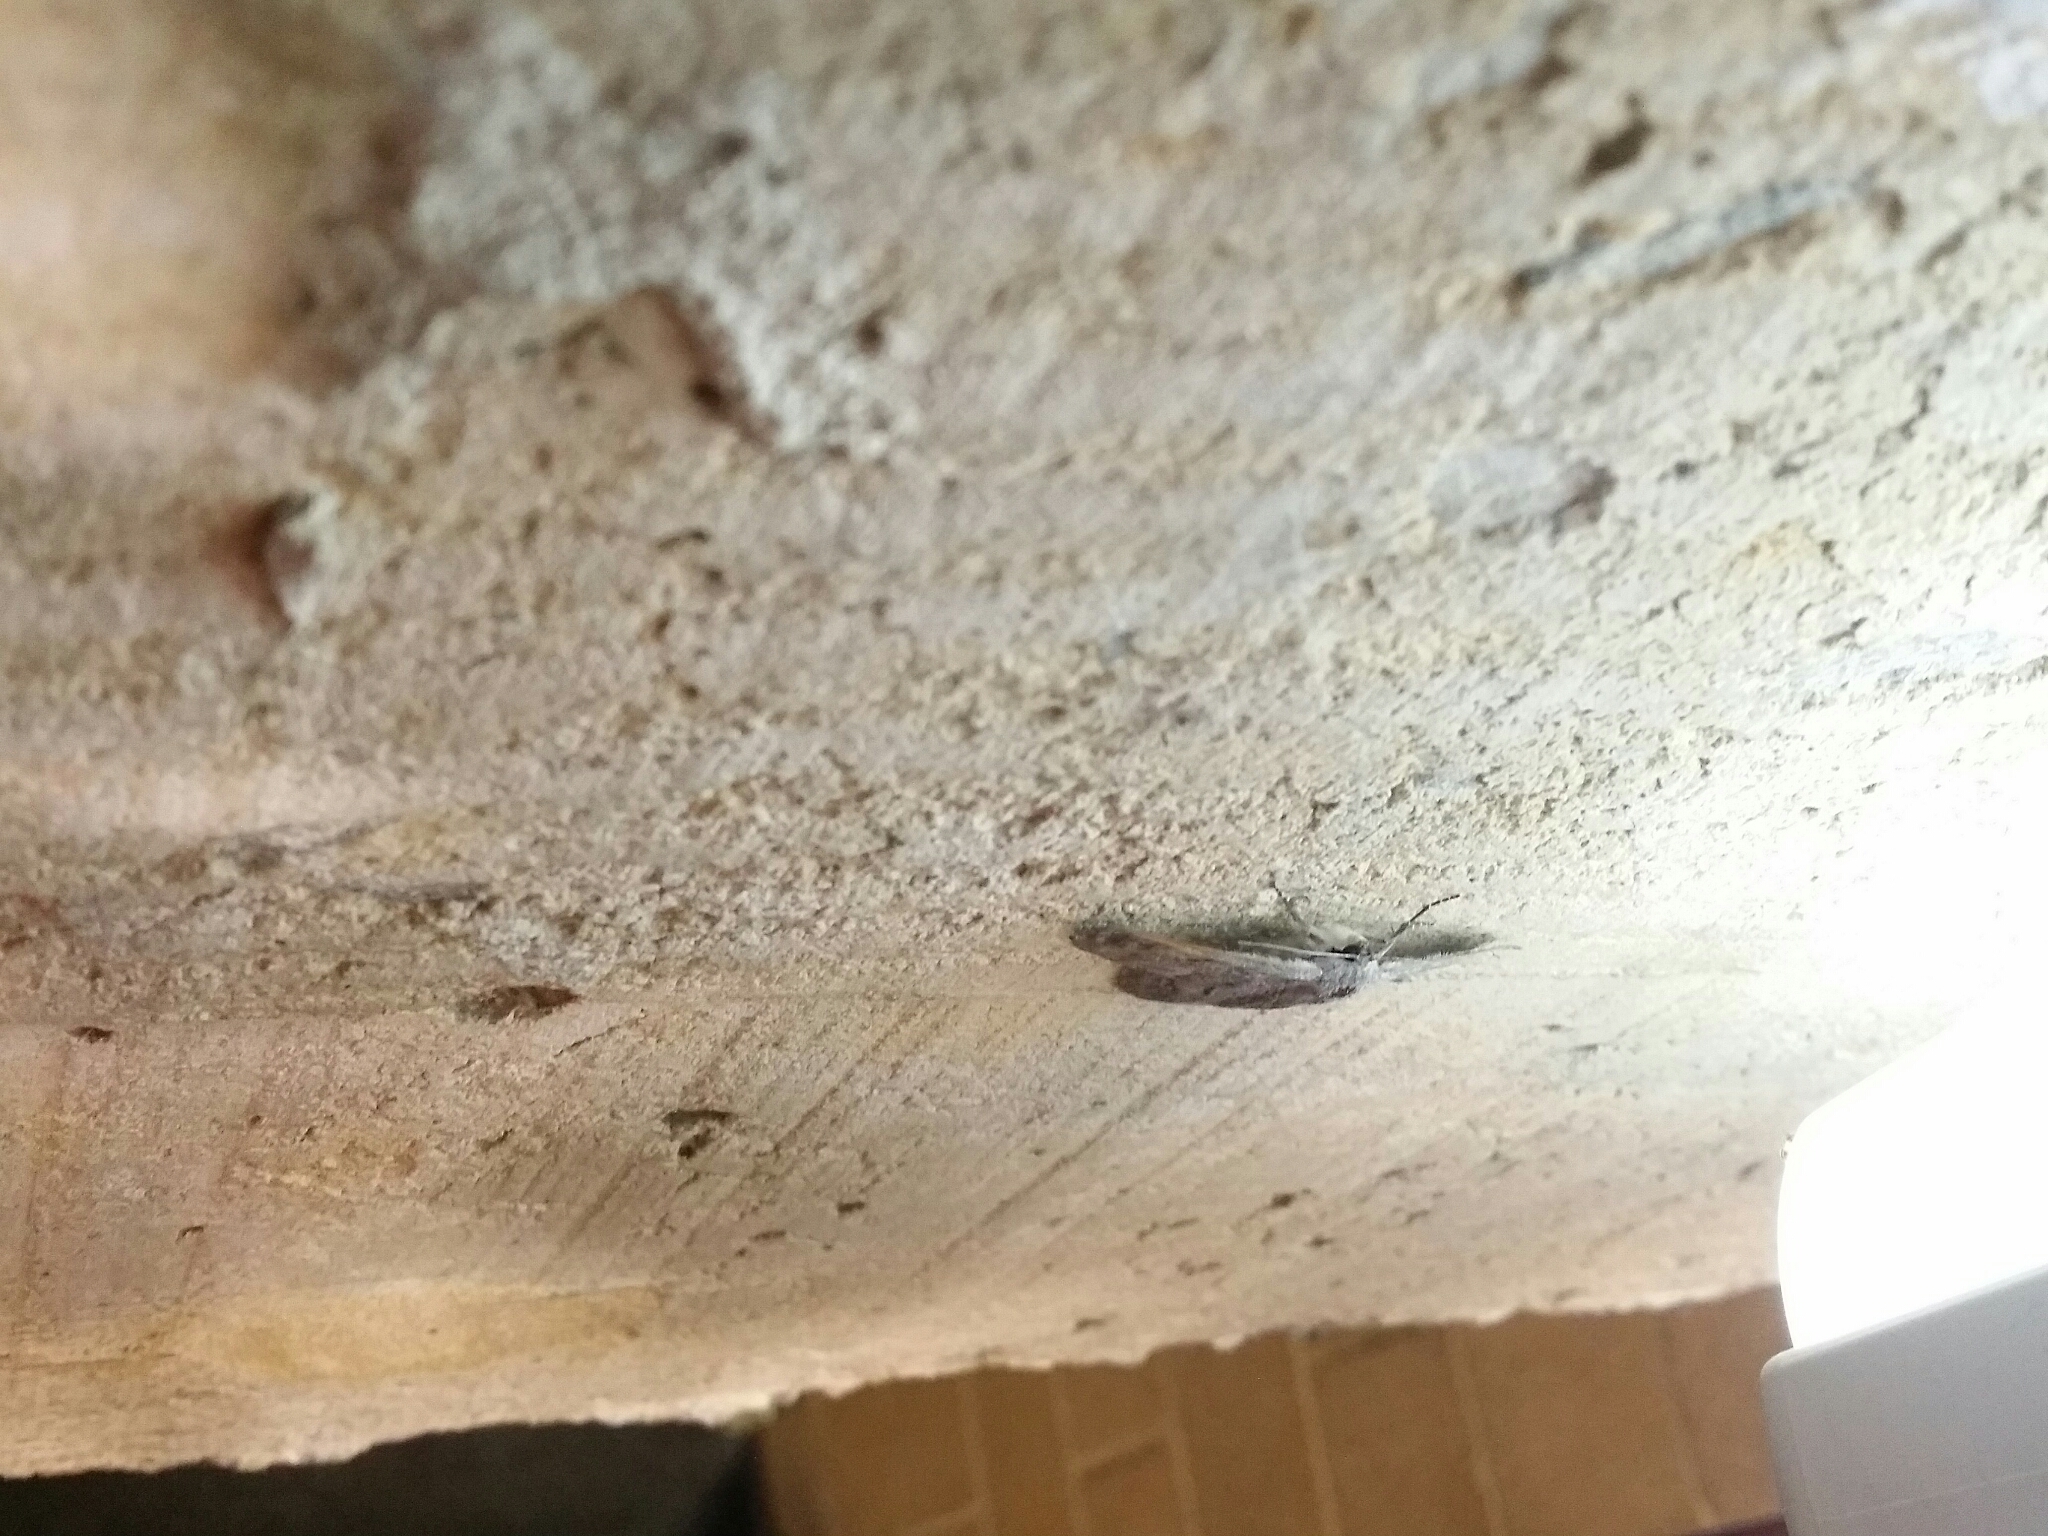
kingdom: Animalia
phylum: Arthropoda
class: Insecta
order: Lepidoptera
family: Geometridae
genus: Crypsiphona
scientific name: Crypsiphona ocultaria
